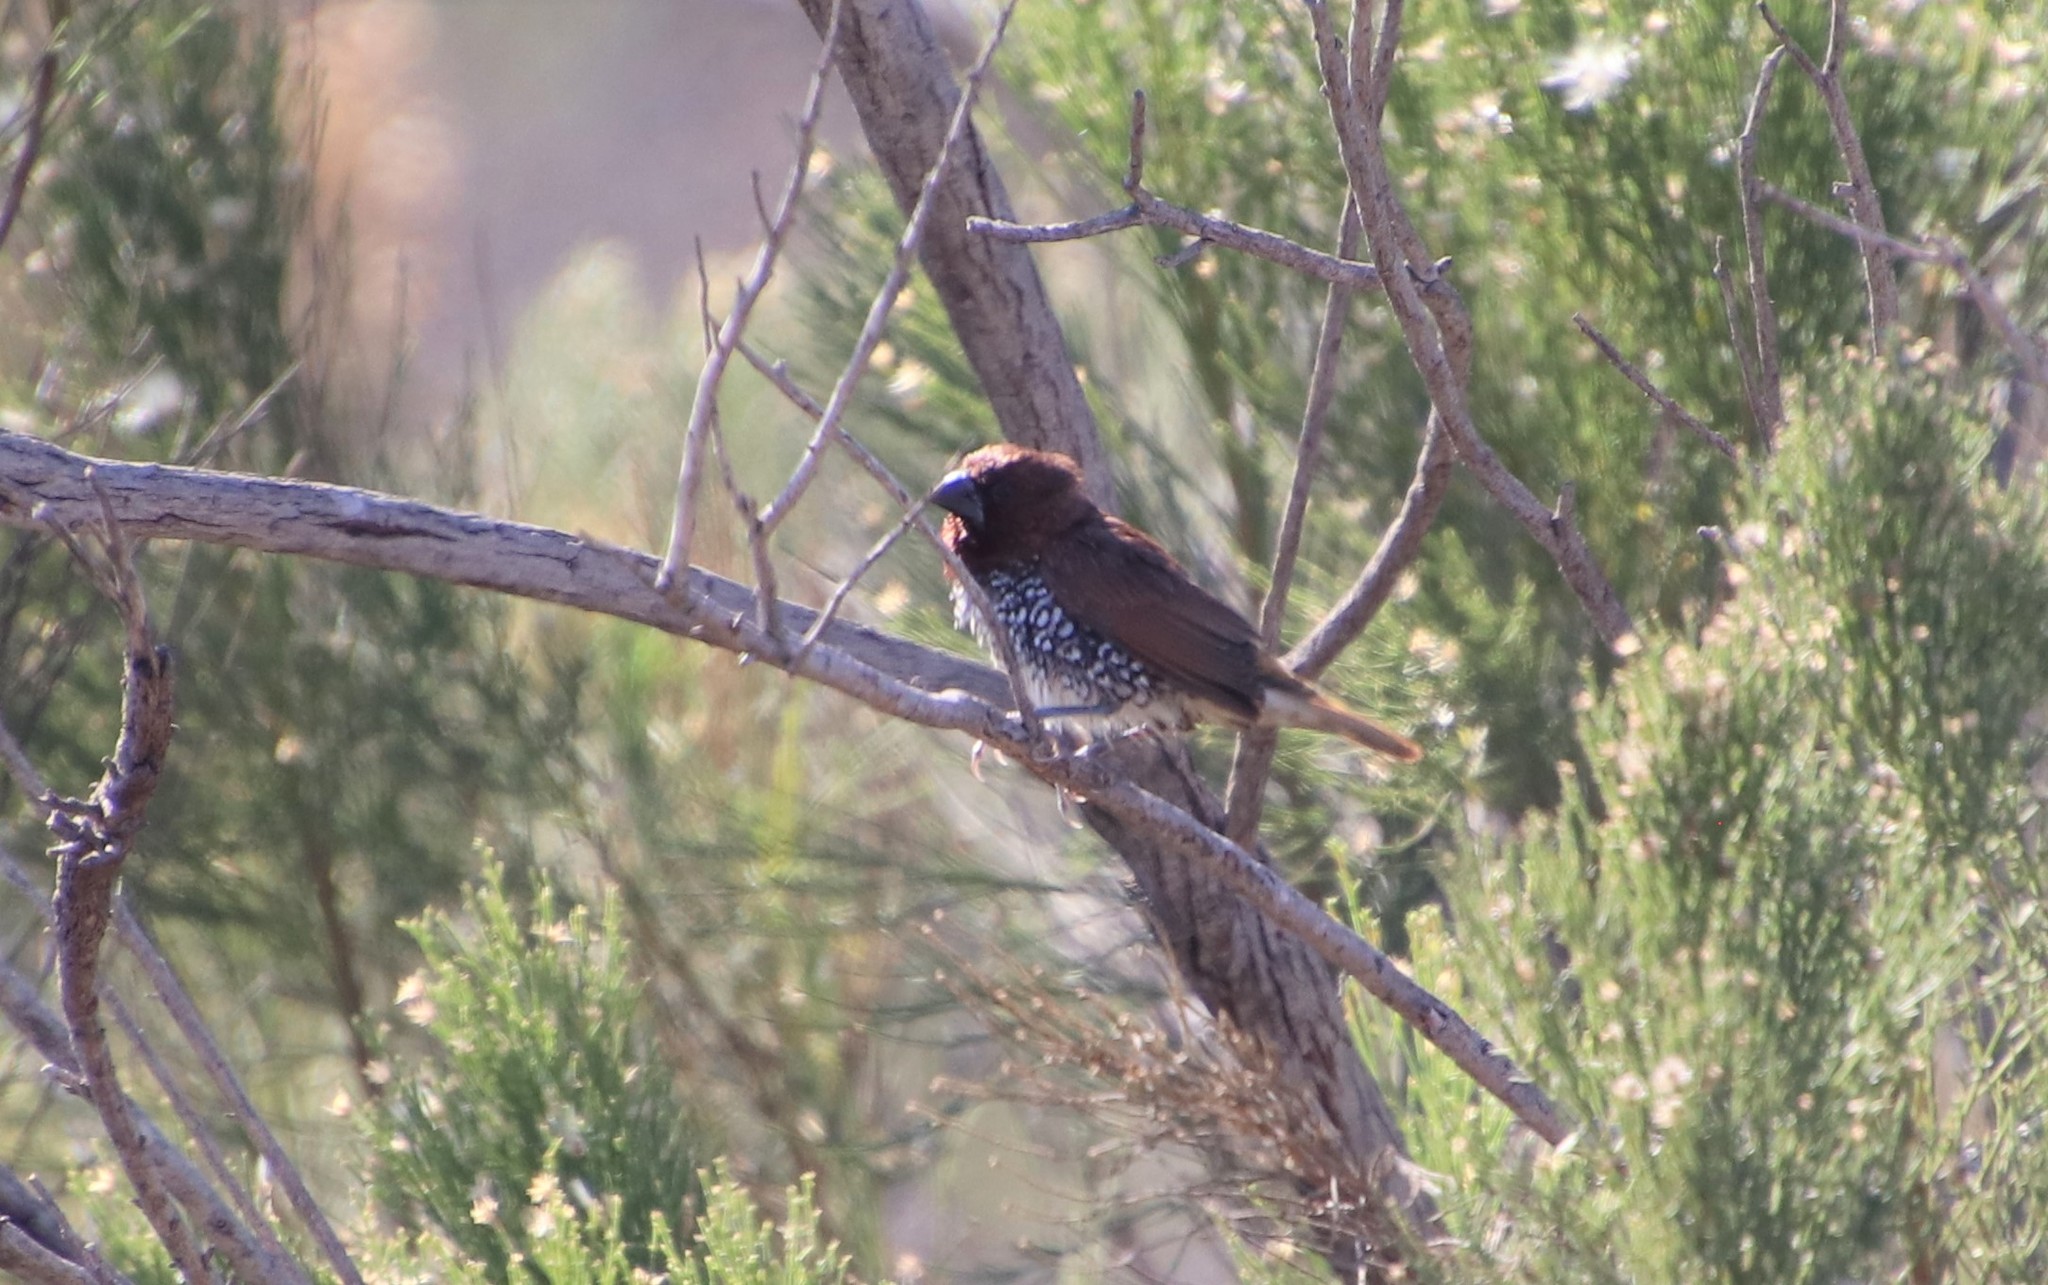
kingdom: Animalia
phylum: Chordata
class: Aves
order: Passeriformes
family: Estrildidae
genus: Lonchura
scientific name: Lonchura punctulata
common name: Scaly-breasted munia
